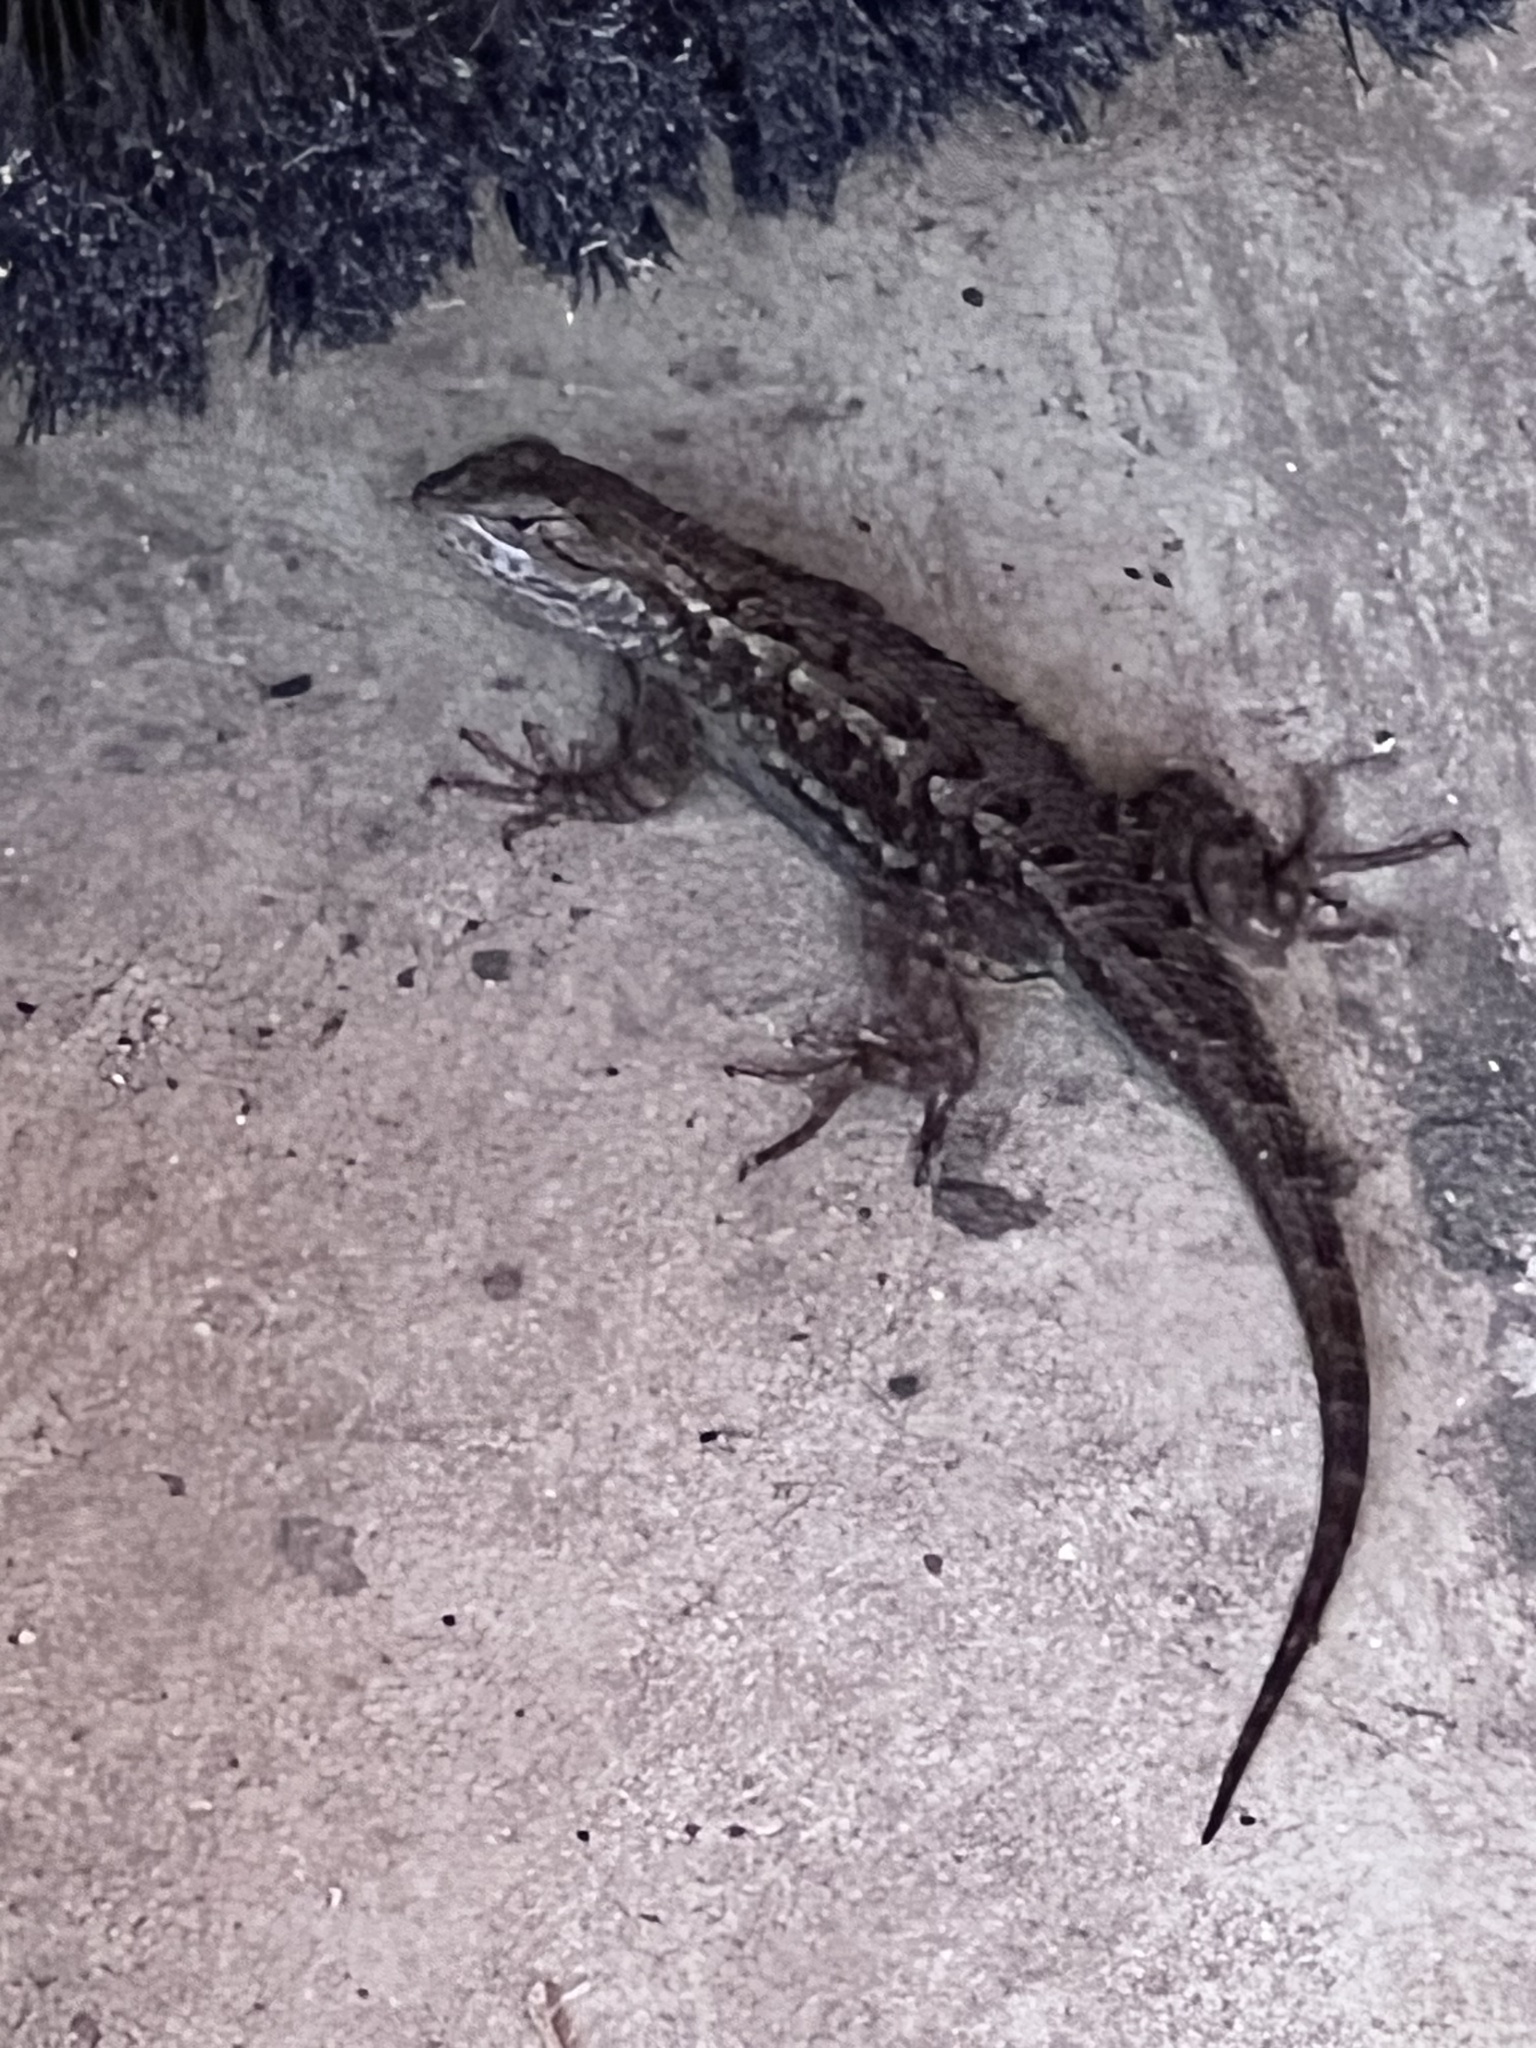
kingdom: Animalia
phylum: Chordata
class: Squamata
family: Phrynosomatidae
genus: Sceloporus
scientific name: Sceloporus occidentalis
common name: Western fence lizard
